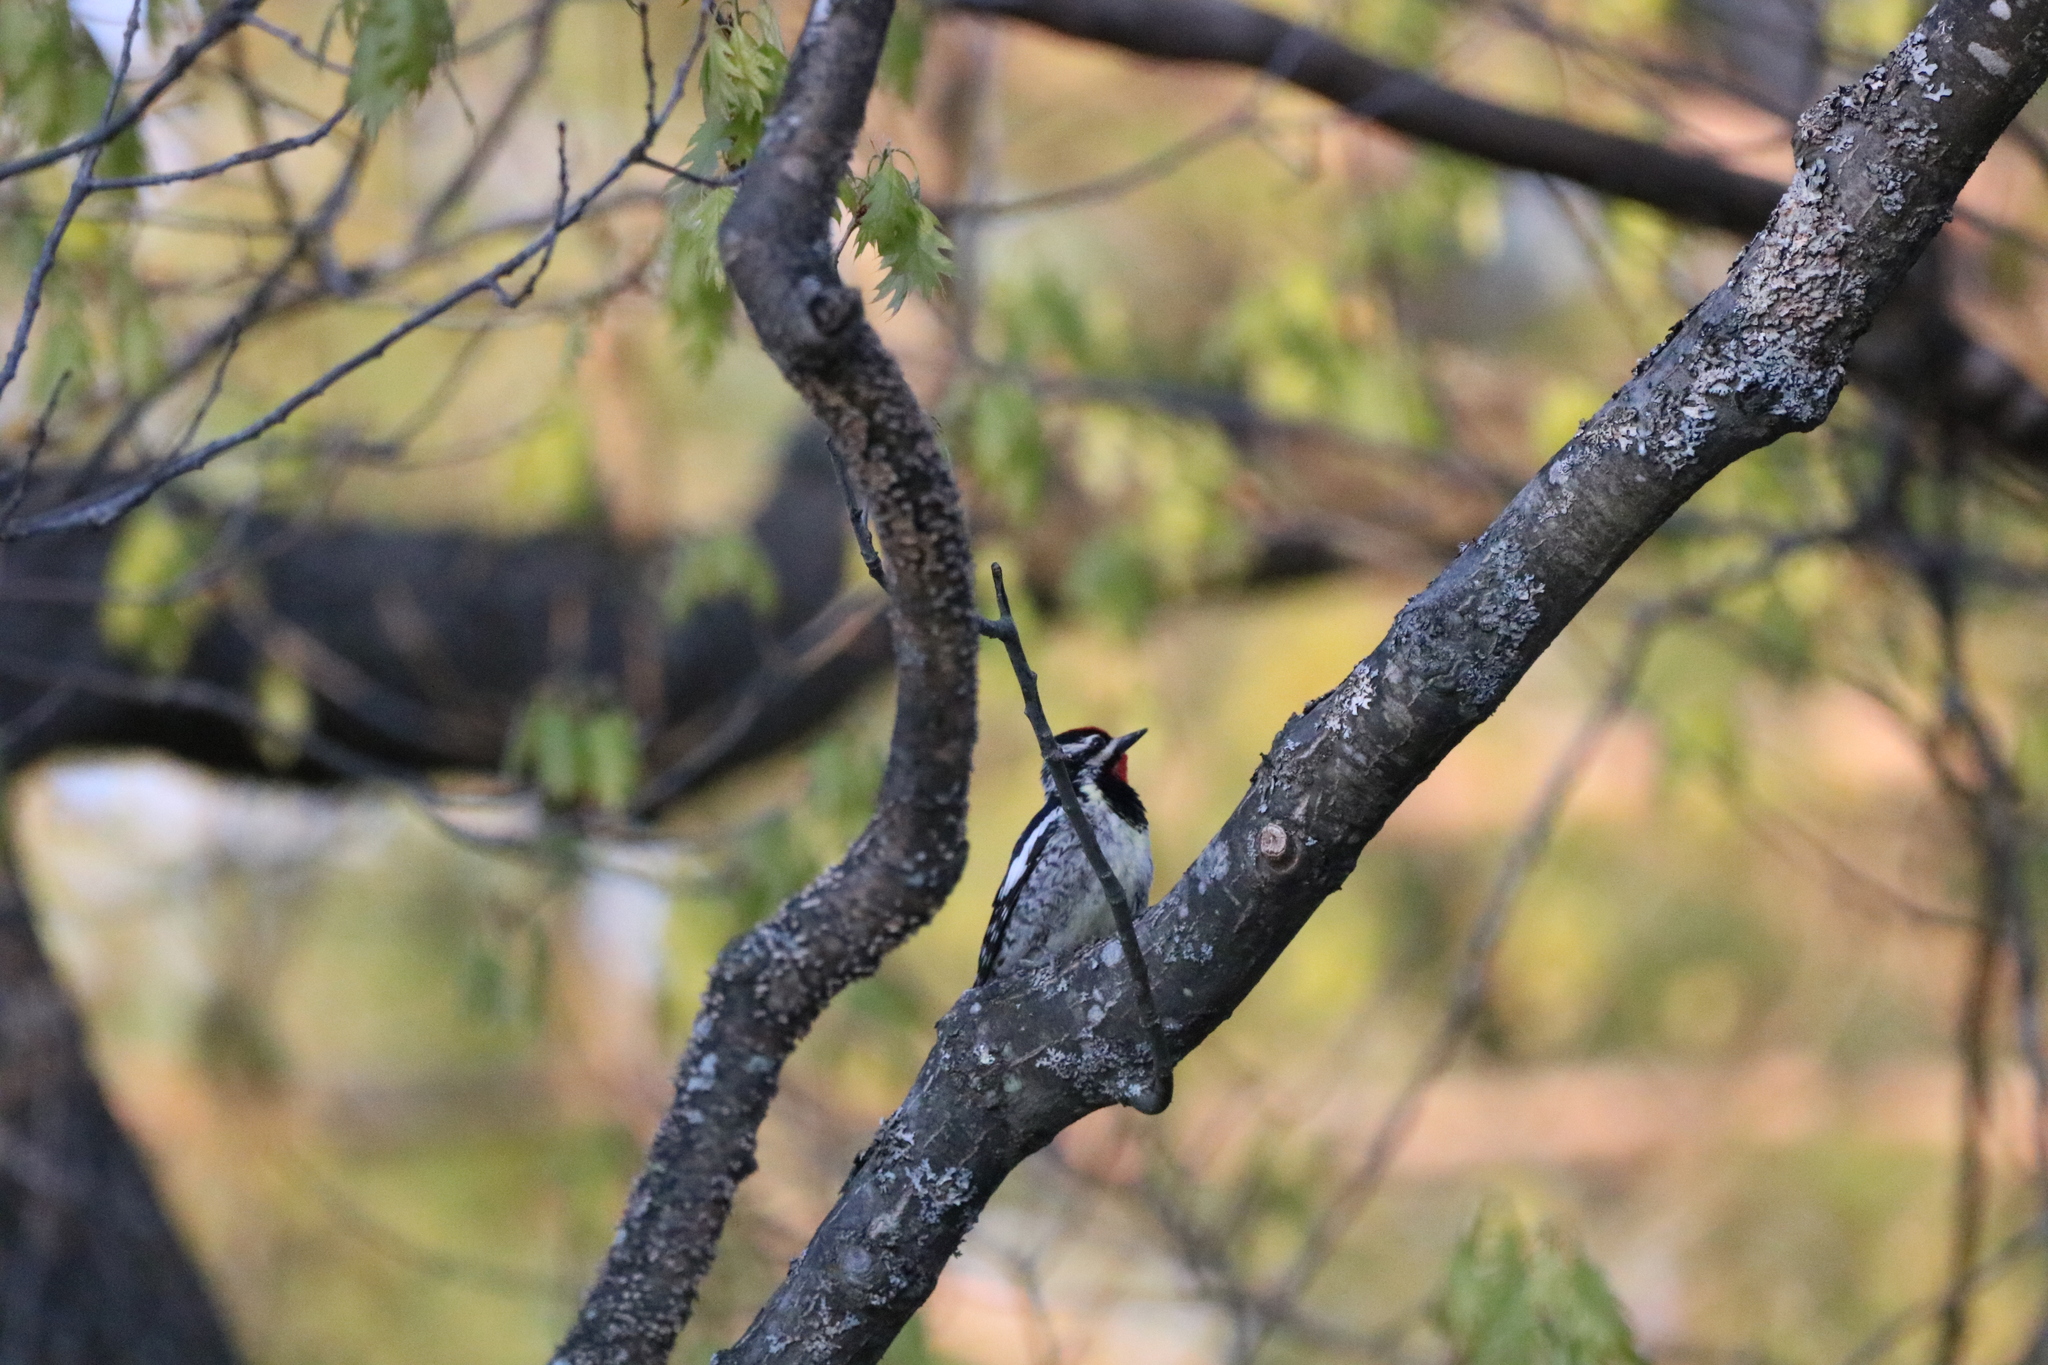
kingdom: Animalia
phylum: Chordata
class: Aves
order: Piciformes
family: Picidae
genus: Sphyrapicus
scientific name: Sphyrapicus varius
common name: Yellow-bellied sapsucker
